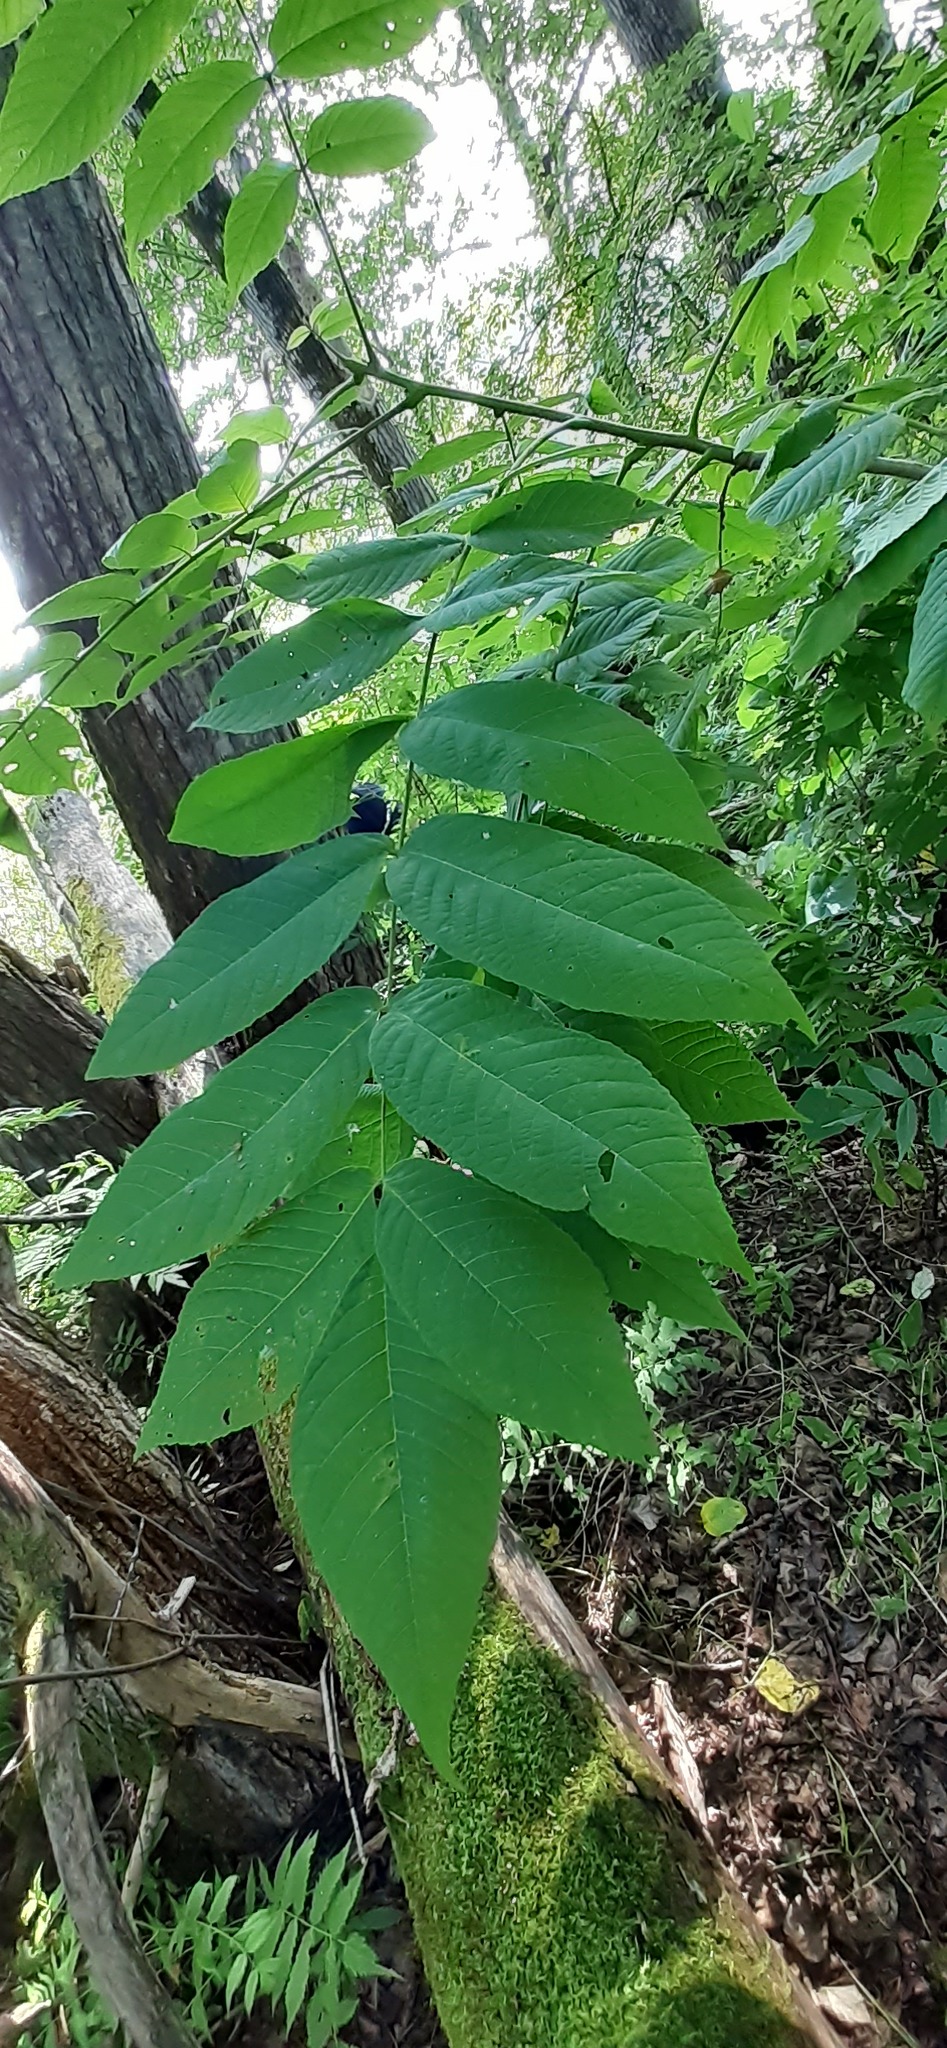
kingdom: Plantae
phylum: Tracheophyta
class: Magnoliopsida
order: Fagales
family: Juglandaceae
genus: Juglans
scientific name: Juglans mandshurica
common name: Manchurian walnut
